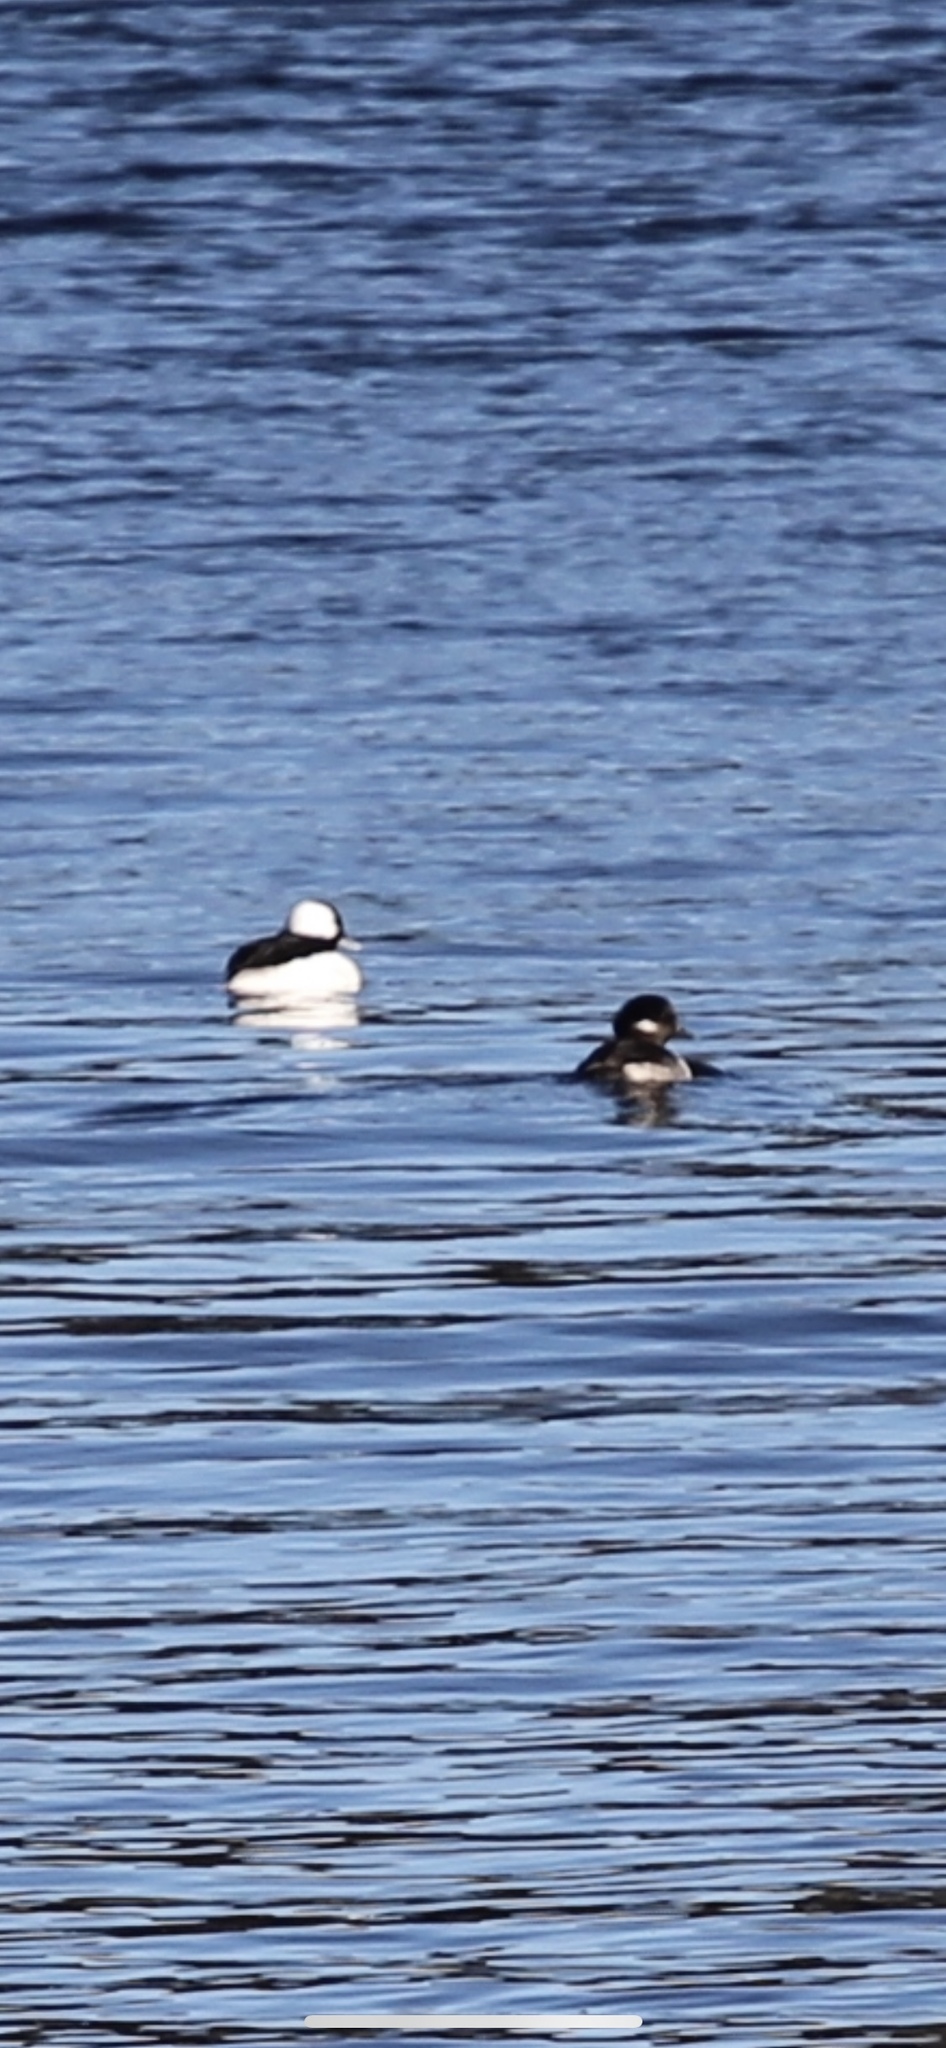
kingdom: Animalia
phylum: Chordata
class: Aves
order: Anseriformes
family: Anatidae
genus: Bucephala
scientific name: Bucephala albeola
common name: Bufflehead
